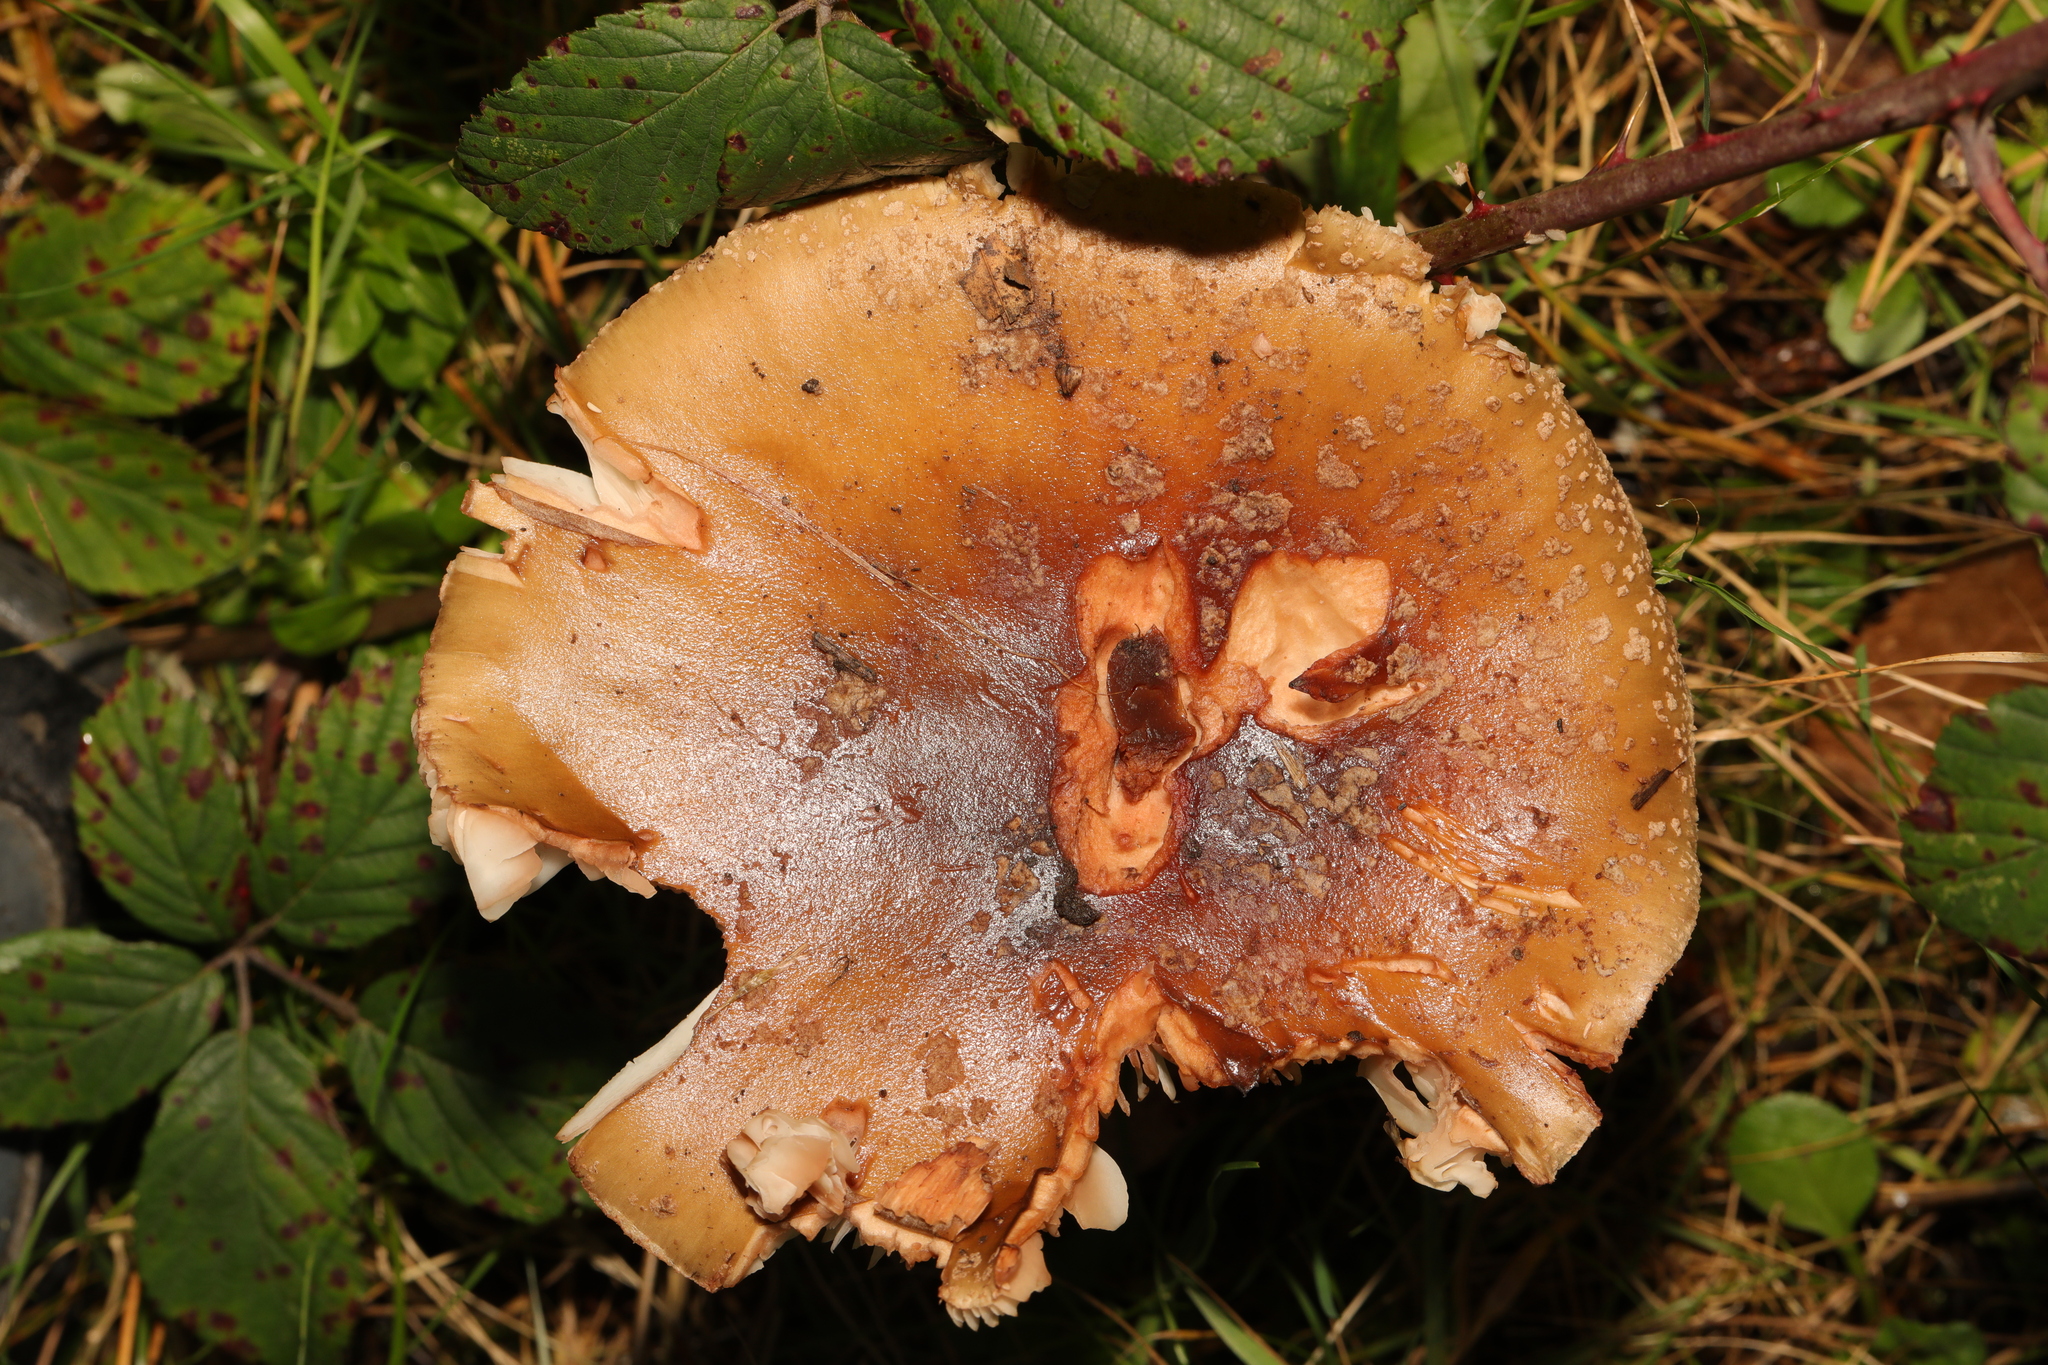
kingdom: Fungi
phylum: Basidiomycota
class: Agaricomycetes
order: Agaricales
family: Amanitaceae
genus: Amanita
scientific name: Amanita rubescens
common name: Blusher
